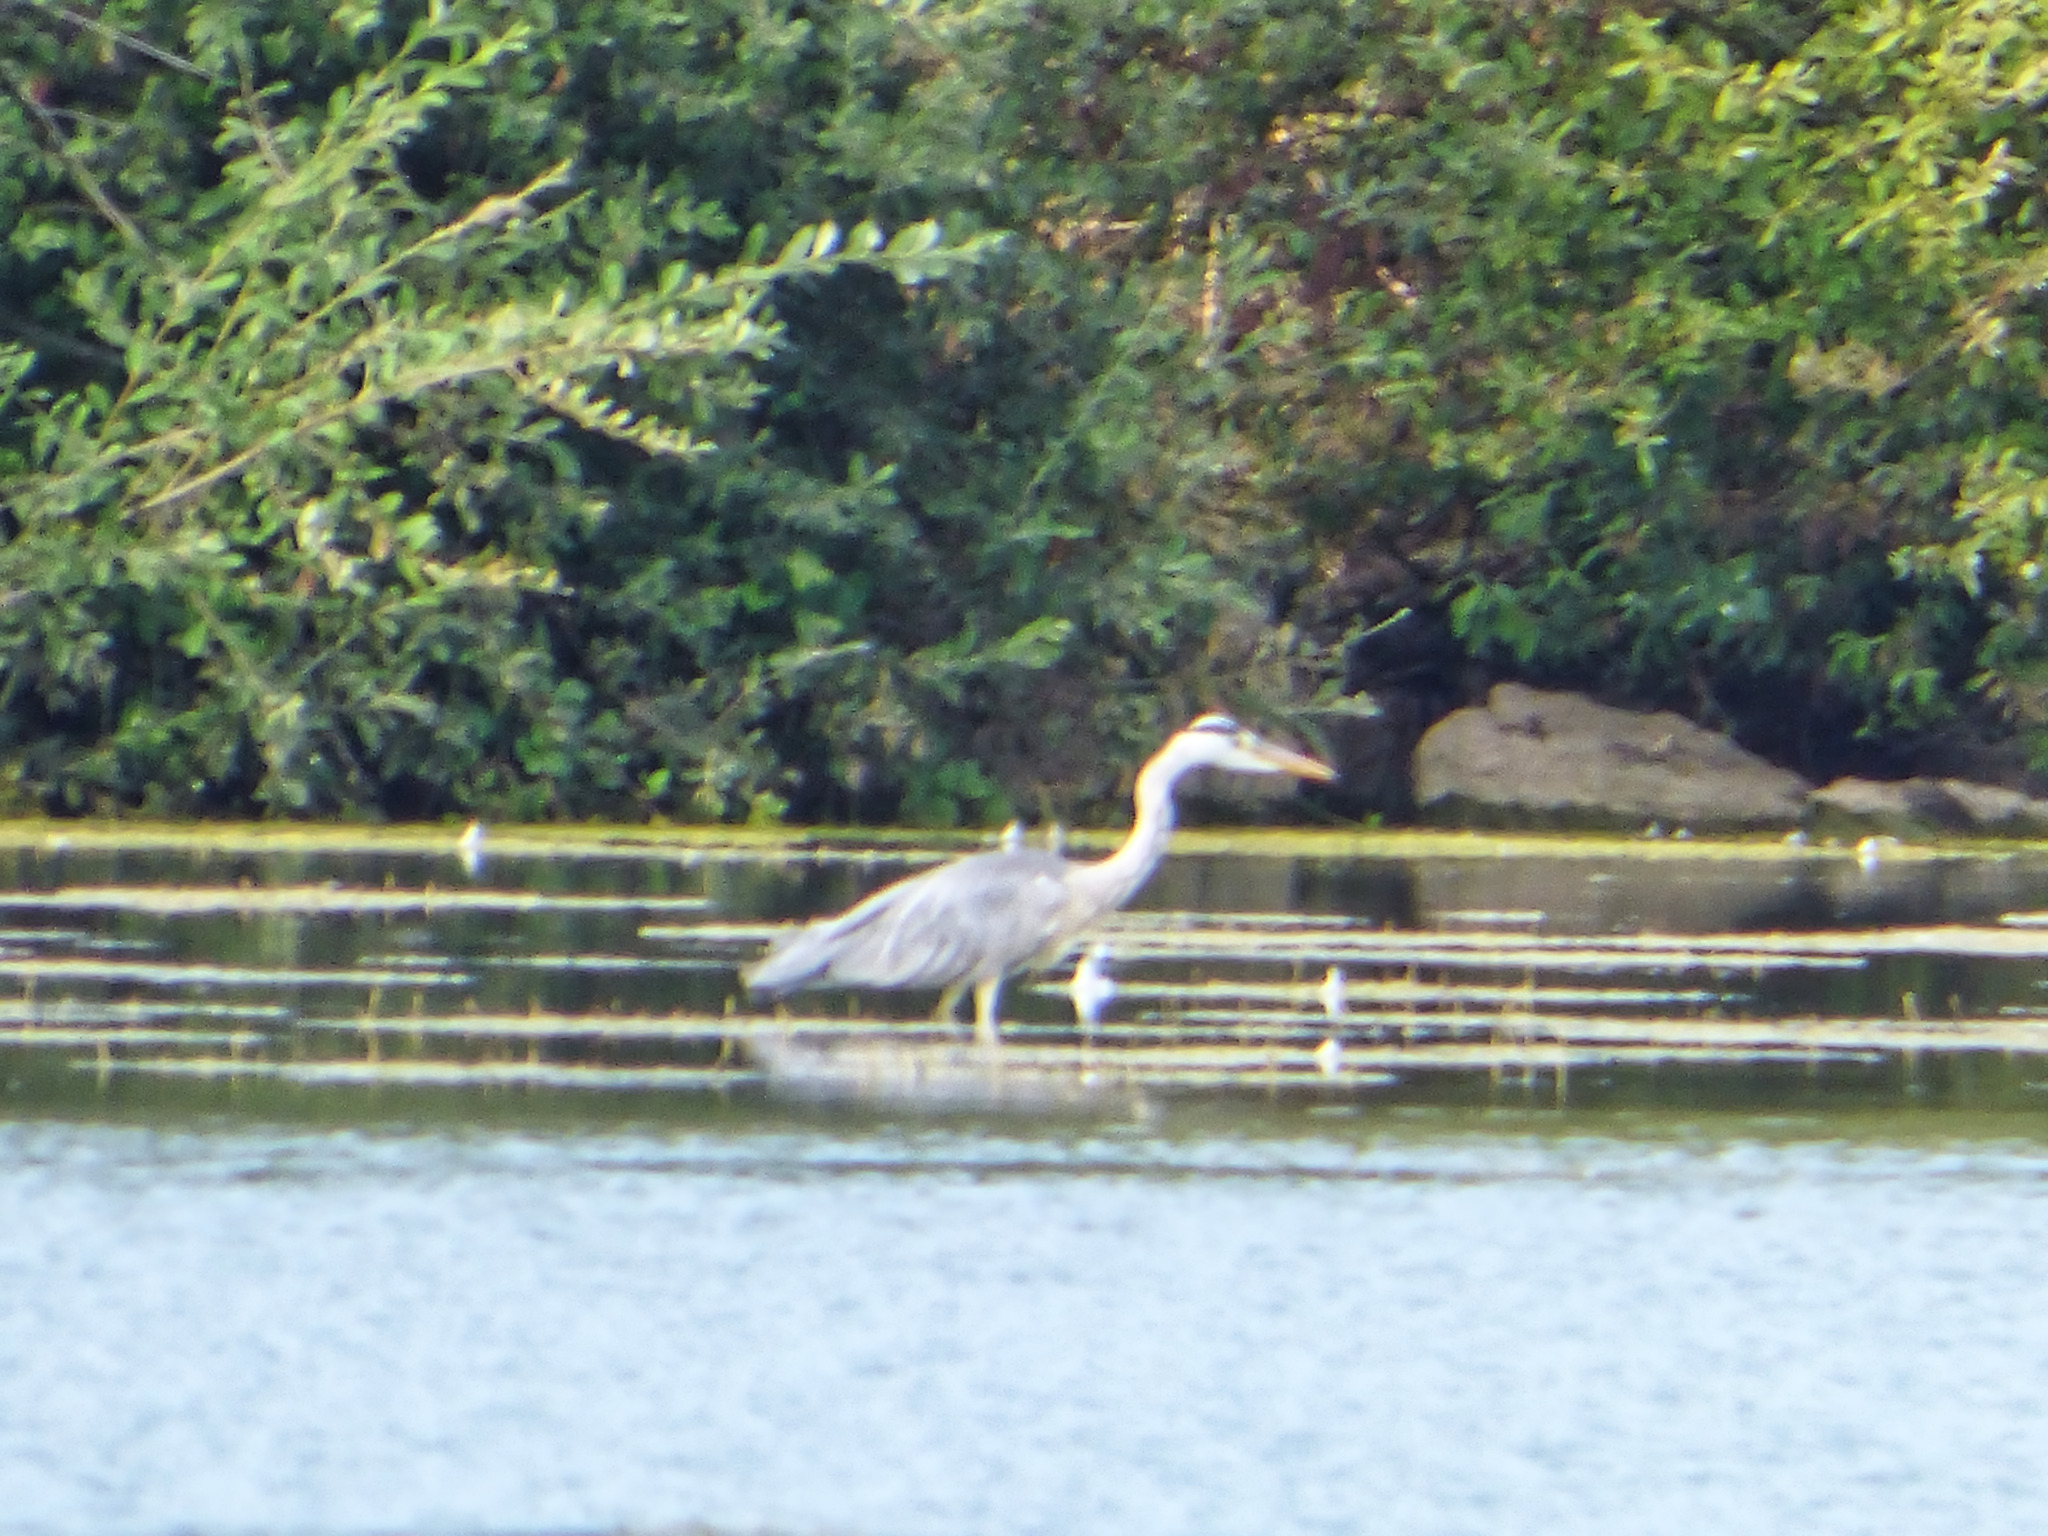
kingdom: Animalia
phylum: Chordata
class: Aves
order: Pelecaniformes
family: Ardeidae
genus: Ardea
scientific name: Ardea cinerea
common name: Grey heron
